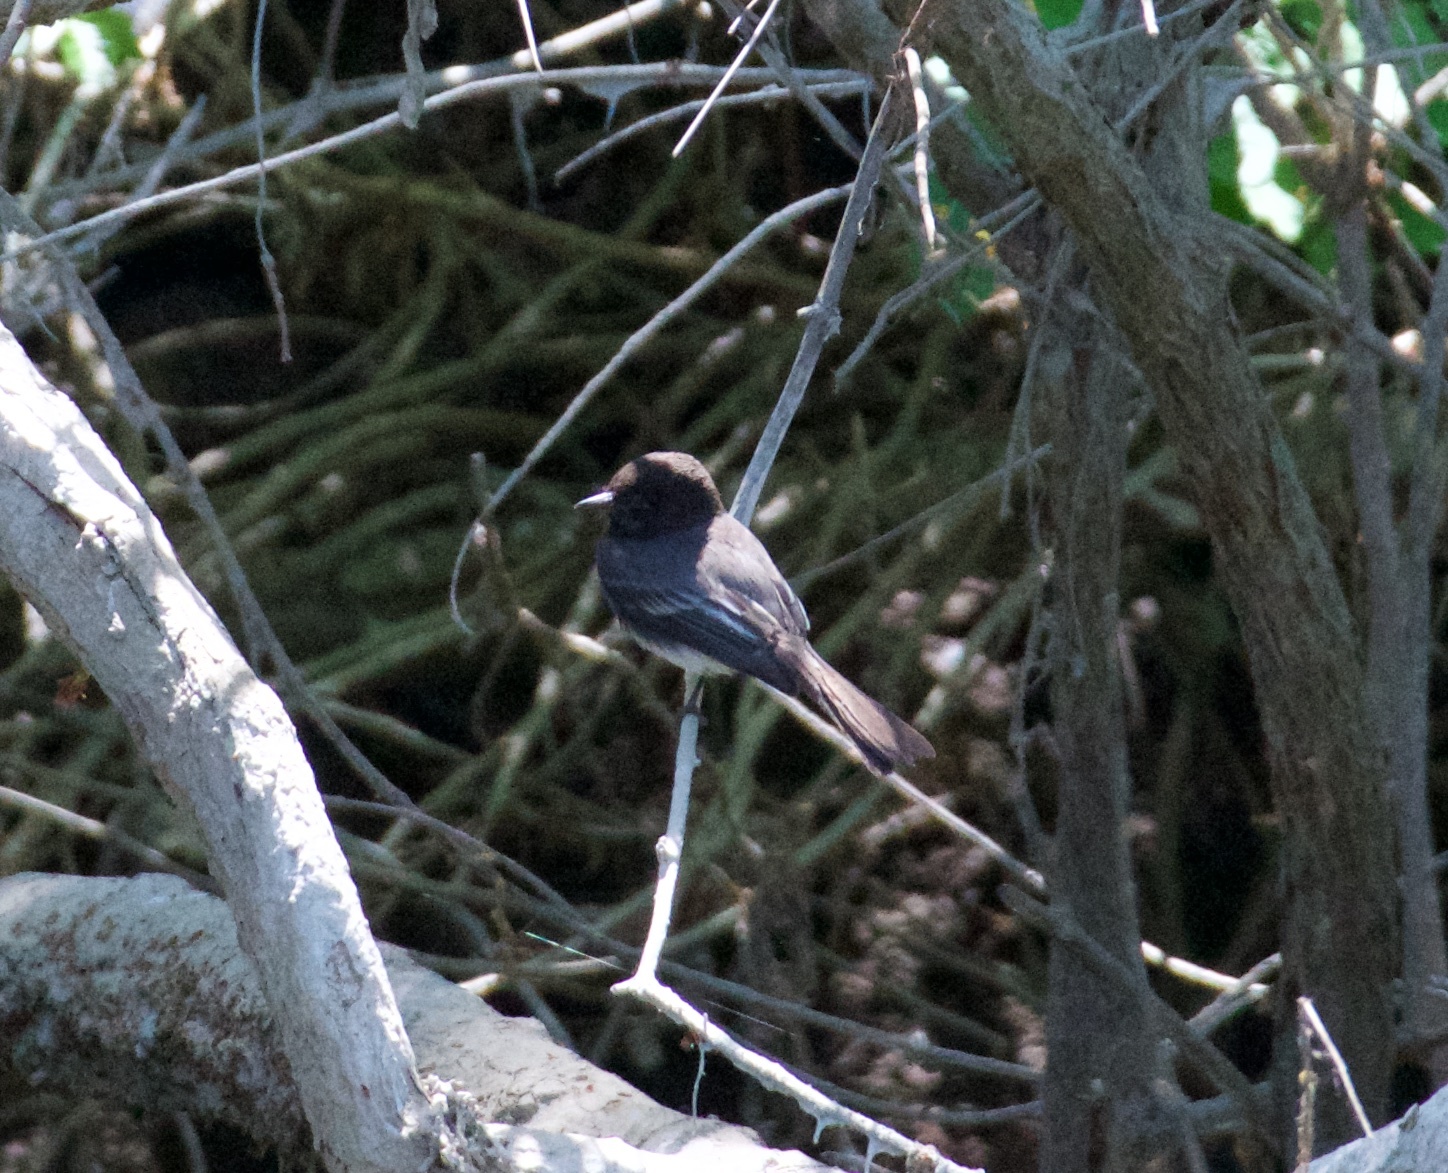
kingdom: Animalia
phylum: Chordata
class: Aves
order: Passeriformes
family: Tyrannidae
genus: Sayornis
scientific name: Sayornis nigricans
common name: Black phoebe
